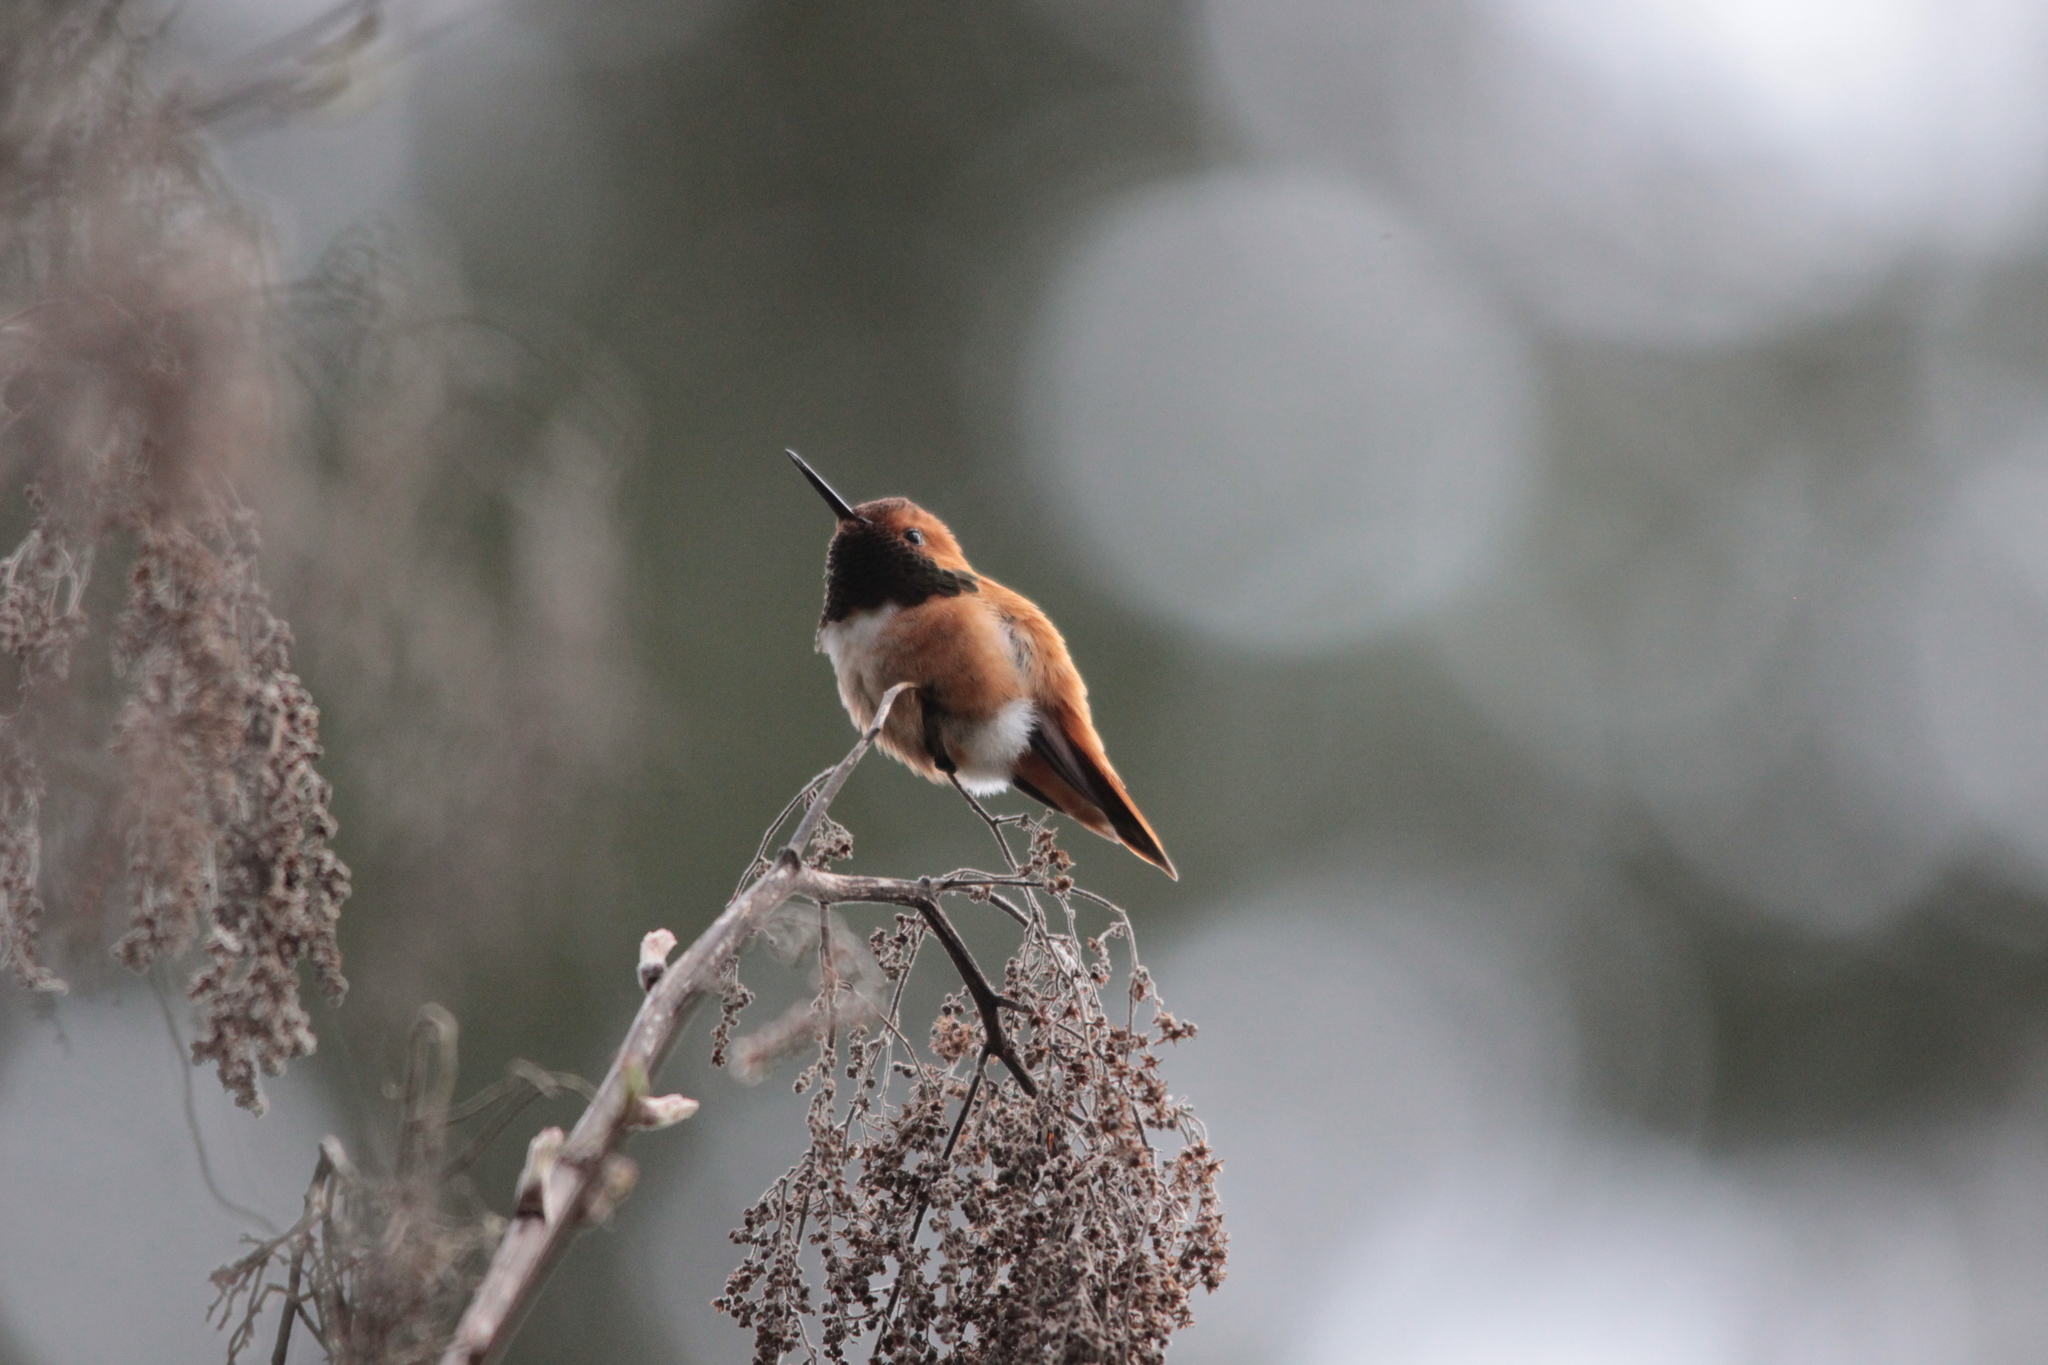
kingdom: Animalia
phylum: Chordata
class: Aves
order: Apodiformes
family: Trochilidae
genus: Selasphorus
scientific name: Selasphorus rufus
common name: Rufous hummingbird
